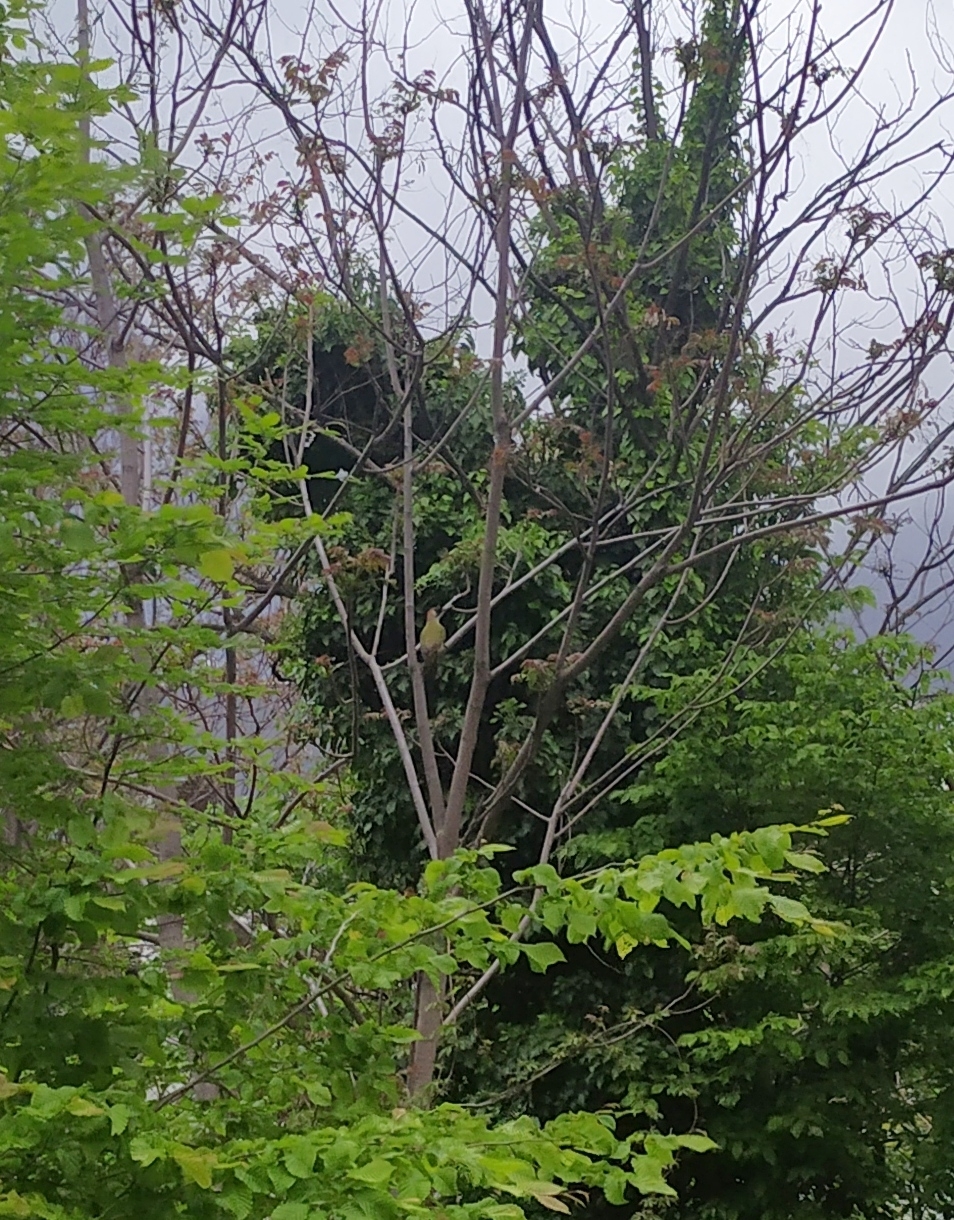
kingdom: Animalia
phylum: Chordata
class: Aves
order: Piciformes
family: Picidae
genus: Picus
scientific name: Picus viridis
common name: European green woodpecker
